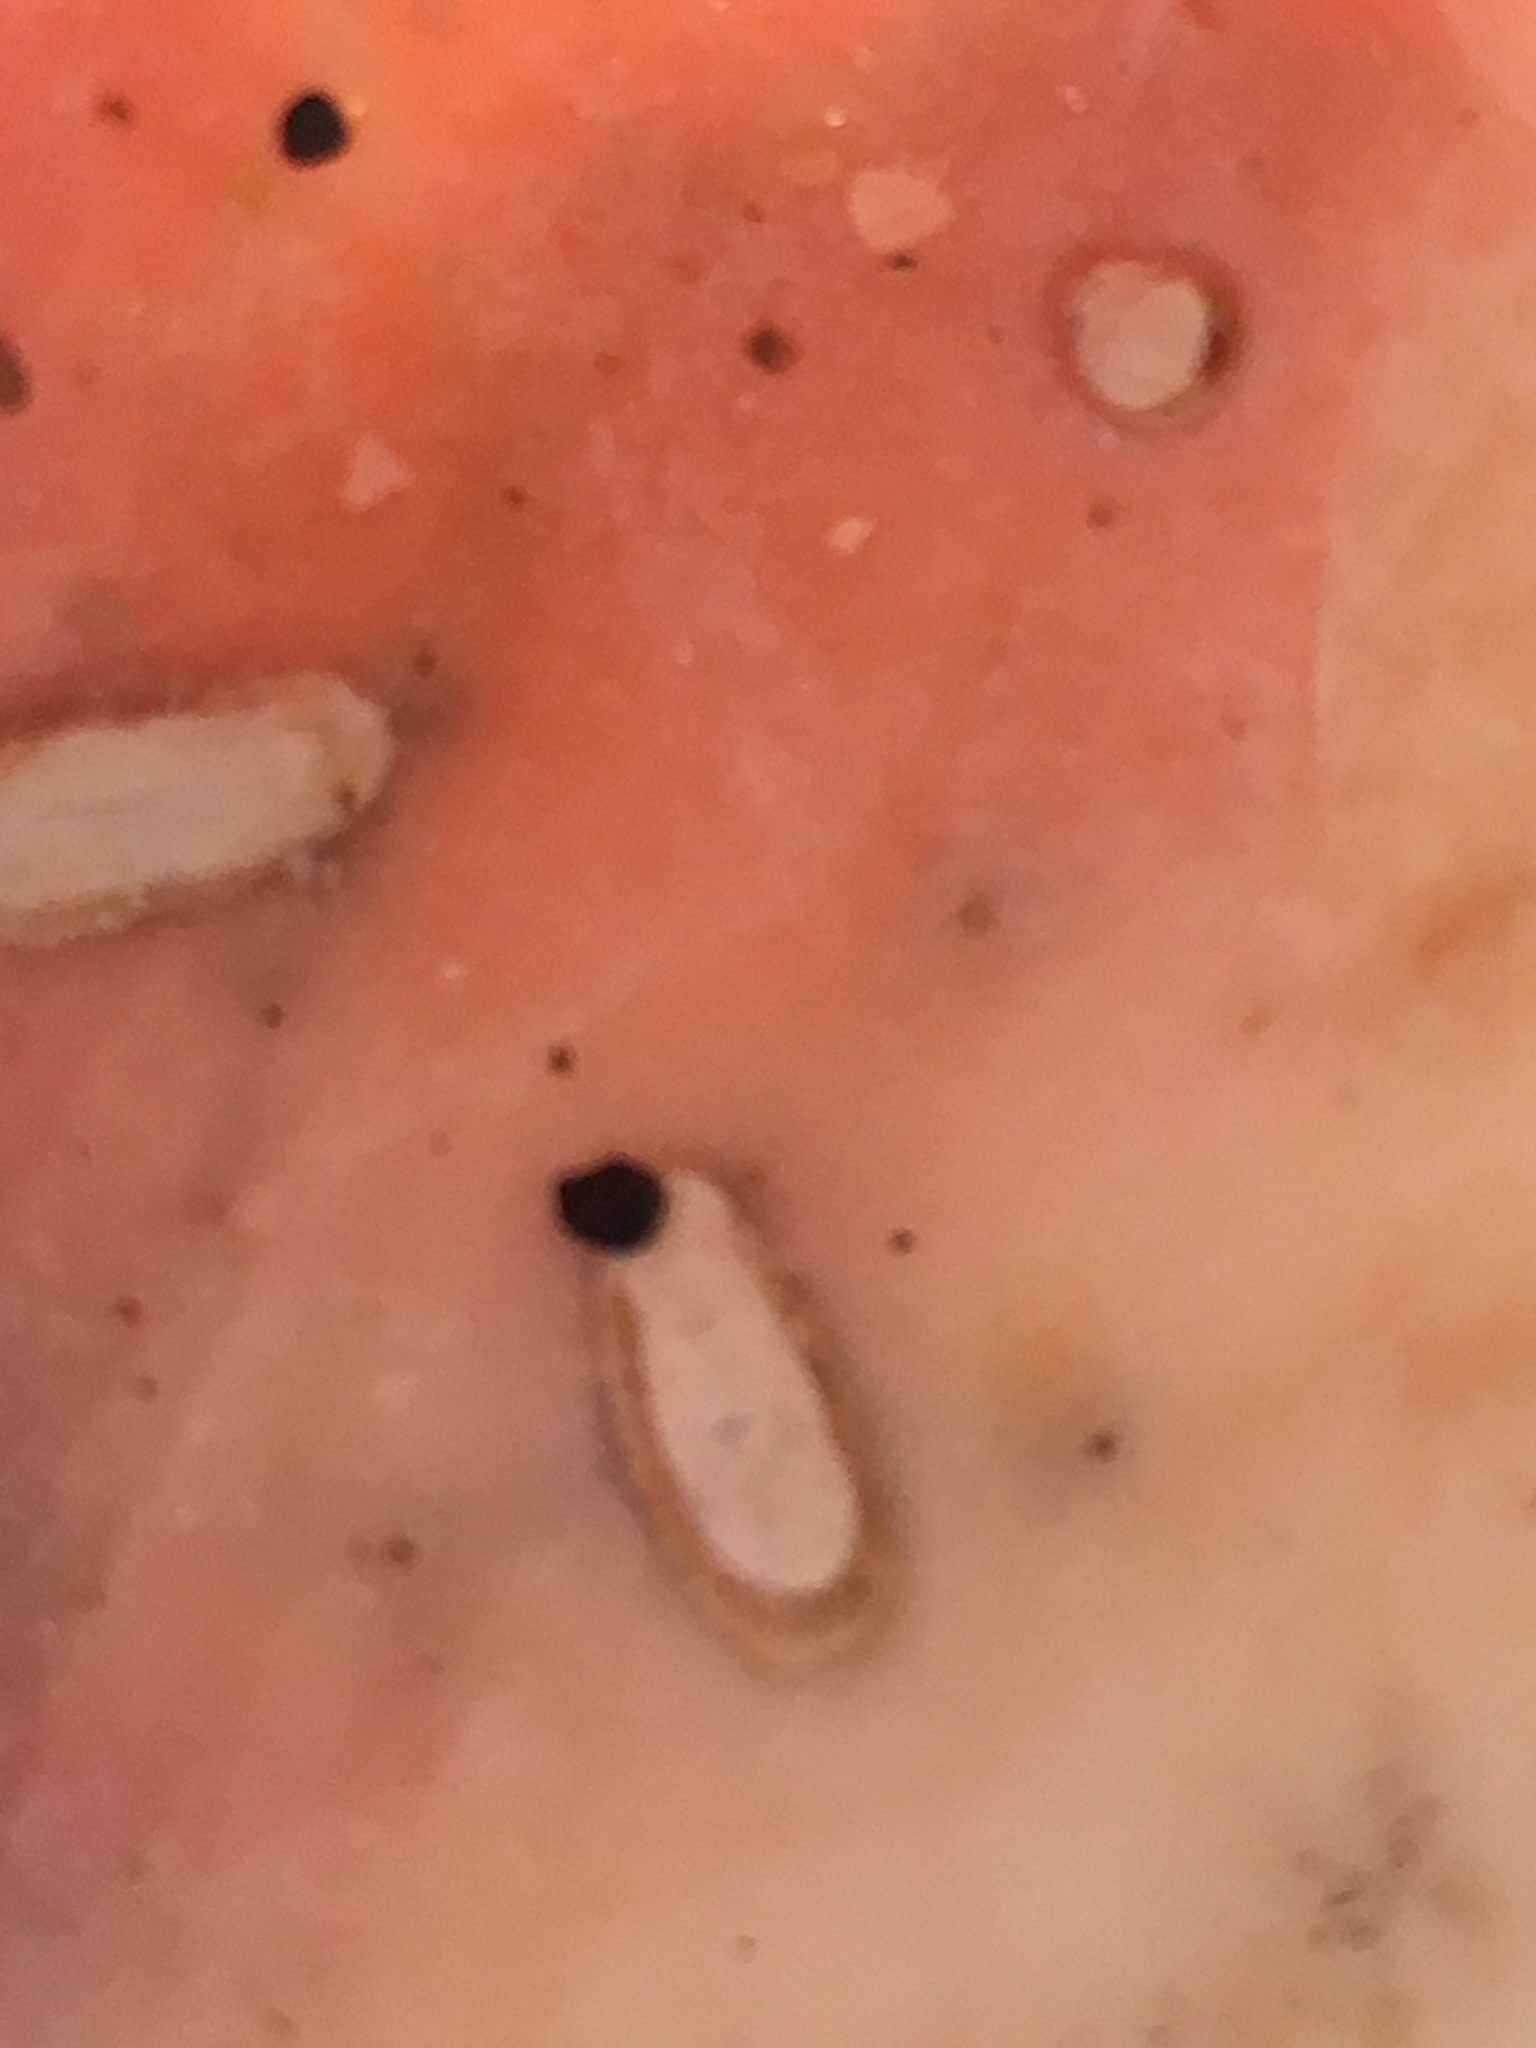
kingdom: Animalia
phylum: Mollusca
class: Bivalvia
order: Gastrochaenida
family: Gastrochaenidae
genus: Rocellaria
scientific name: Rocellaria stimpsonii
